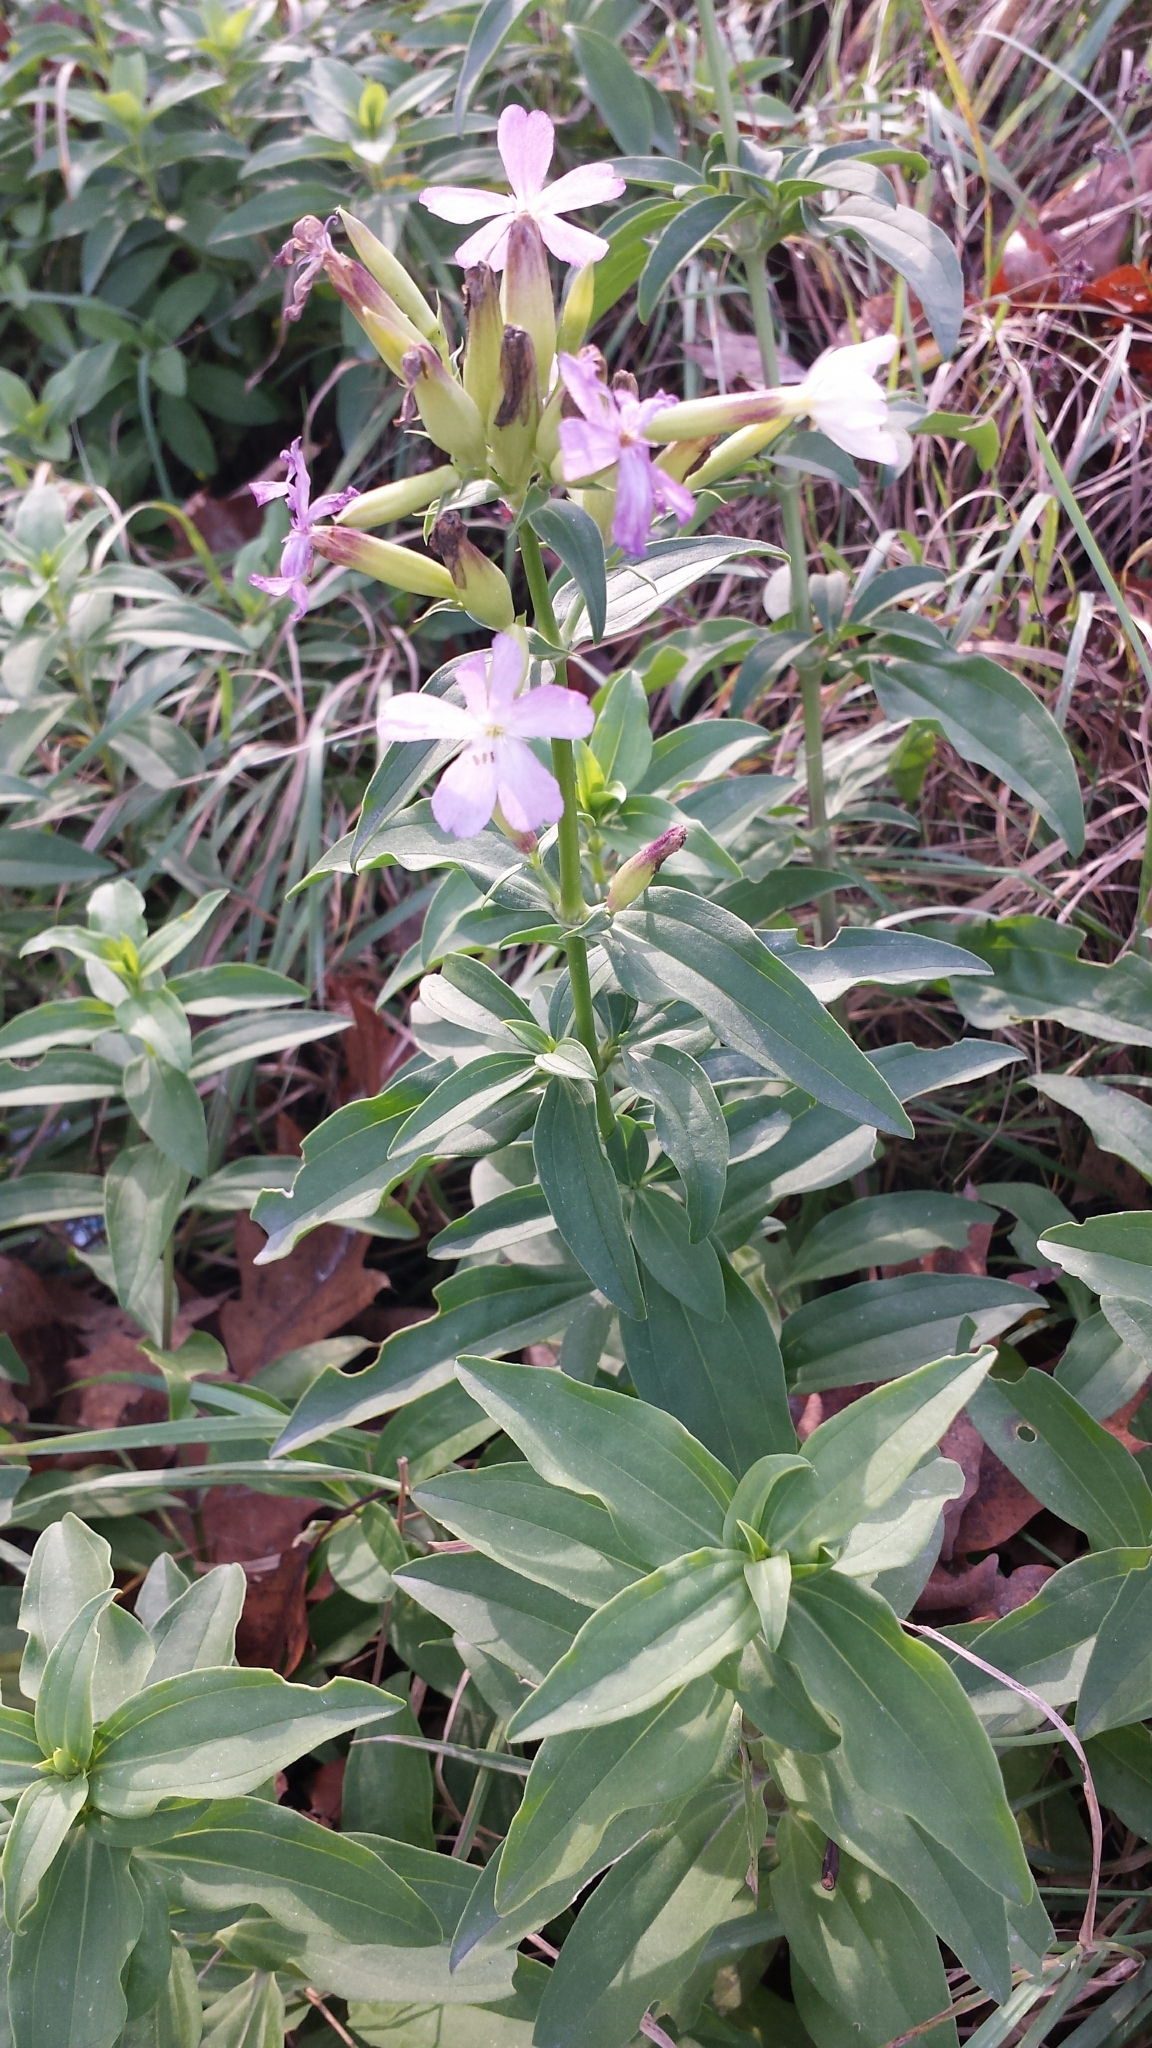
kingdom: Plantae
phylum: Tracheophyta
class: Magnoliopsida
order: Caryophyllales
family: Caryophyllaceae
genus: Saponaria
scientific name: Saponaria officinalis
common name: Soapwort
